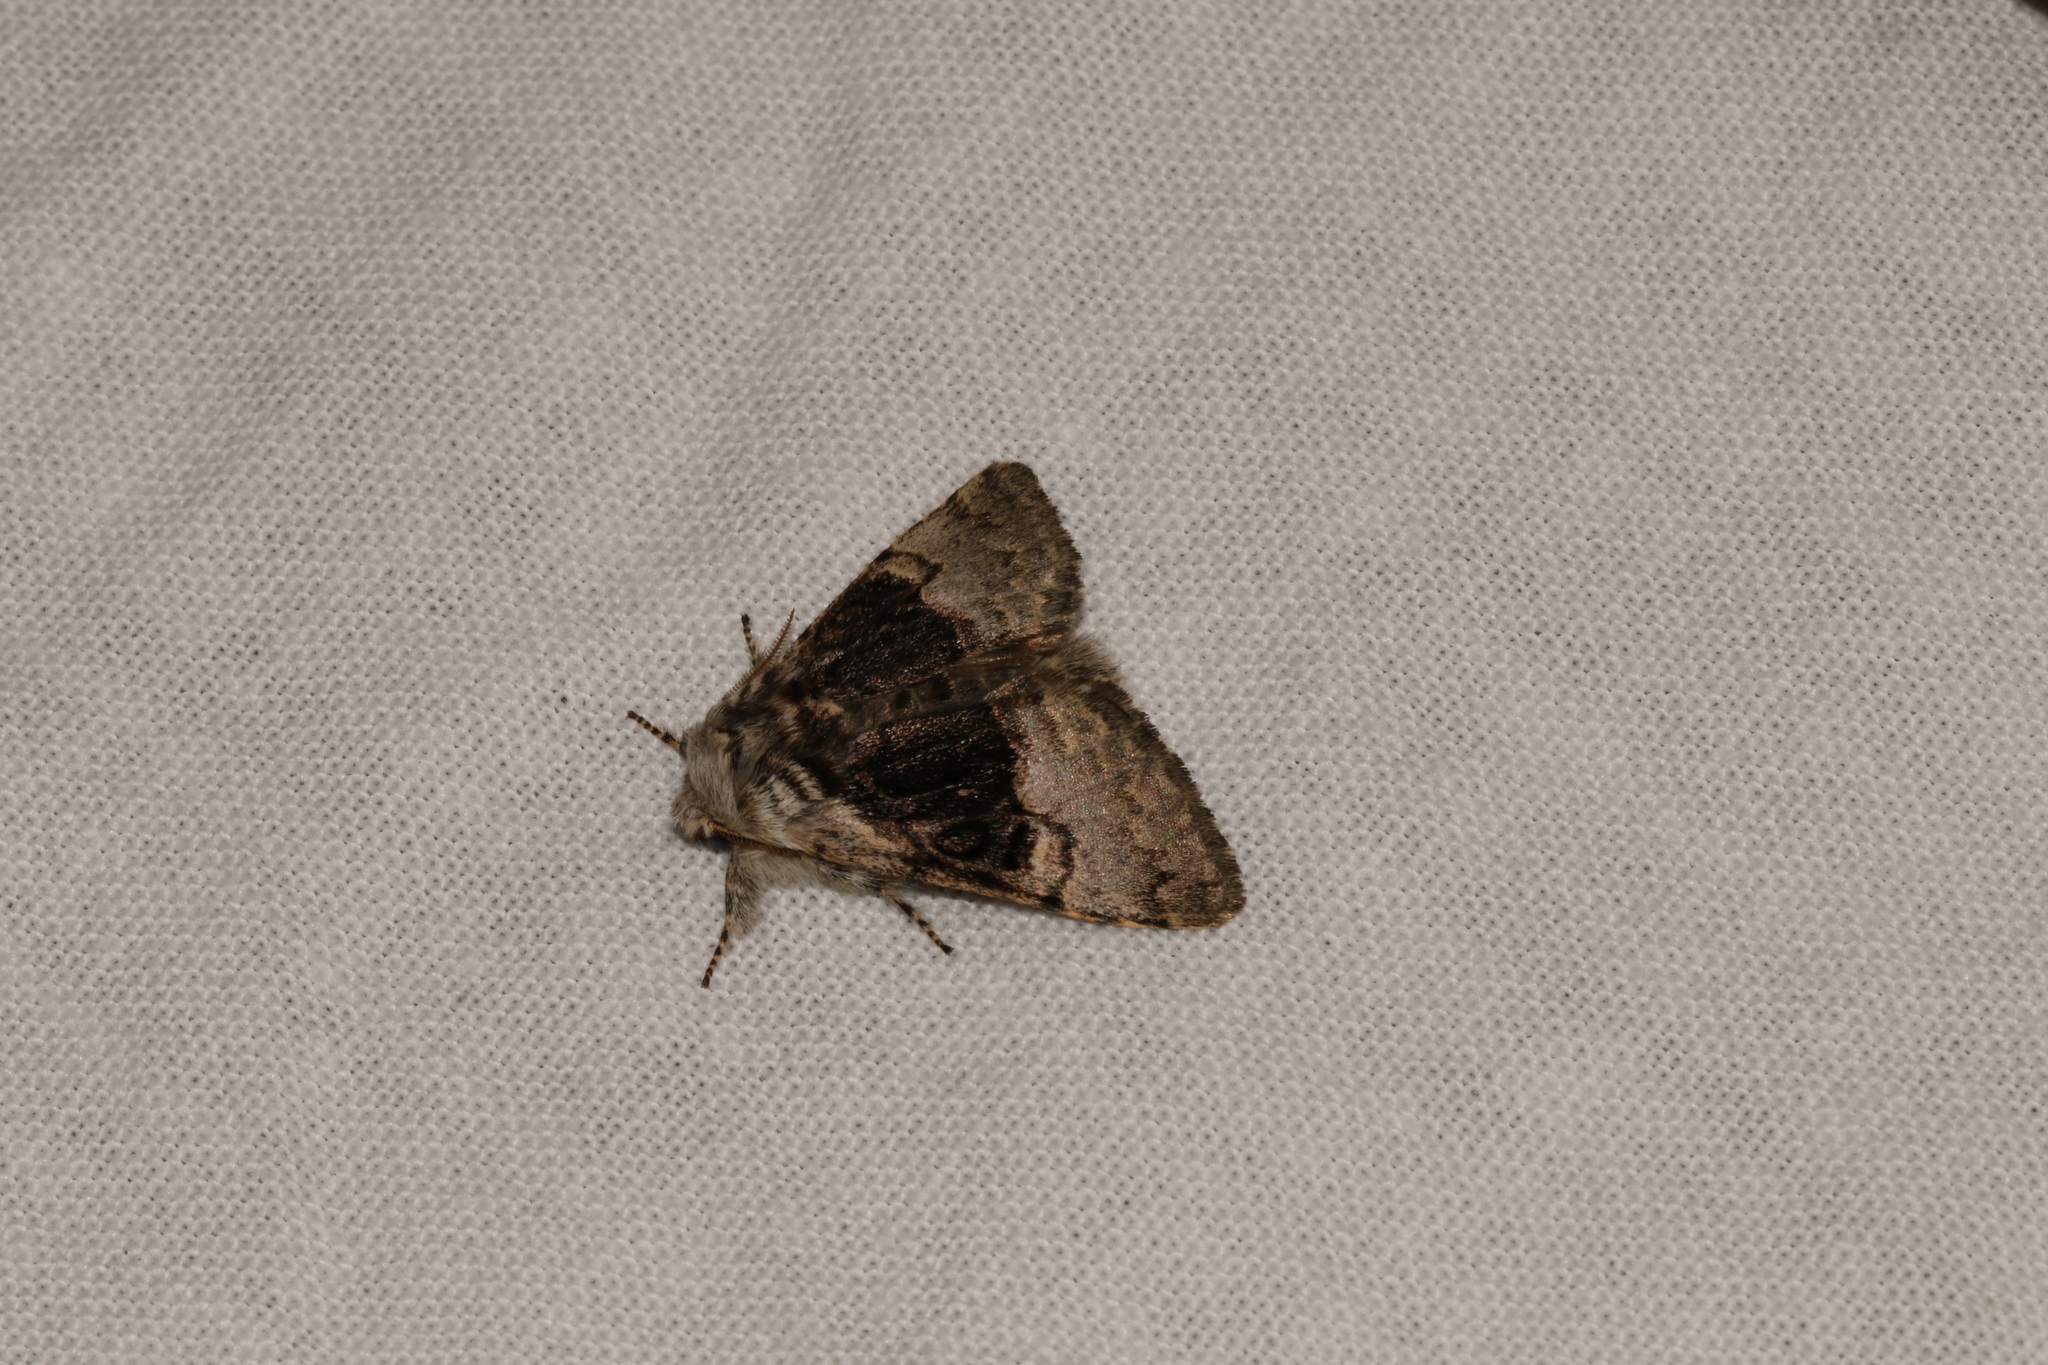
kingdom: Animalia
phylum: Arthropoda
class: Insecta
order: Lepidoptera
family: Noctuidae
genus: Colocasia
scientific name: Colocasia coryli
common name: Nut-tree tussock
